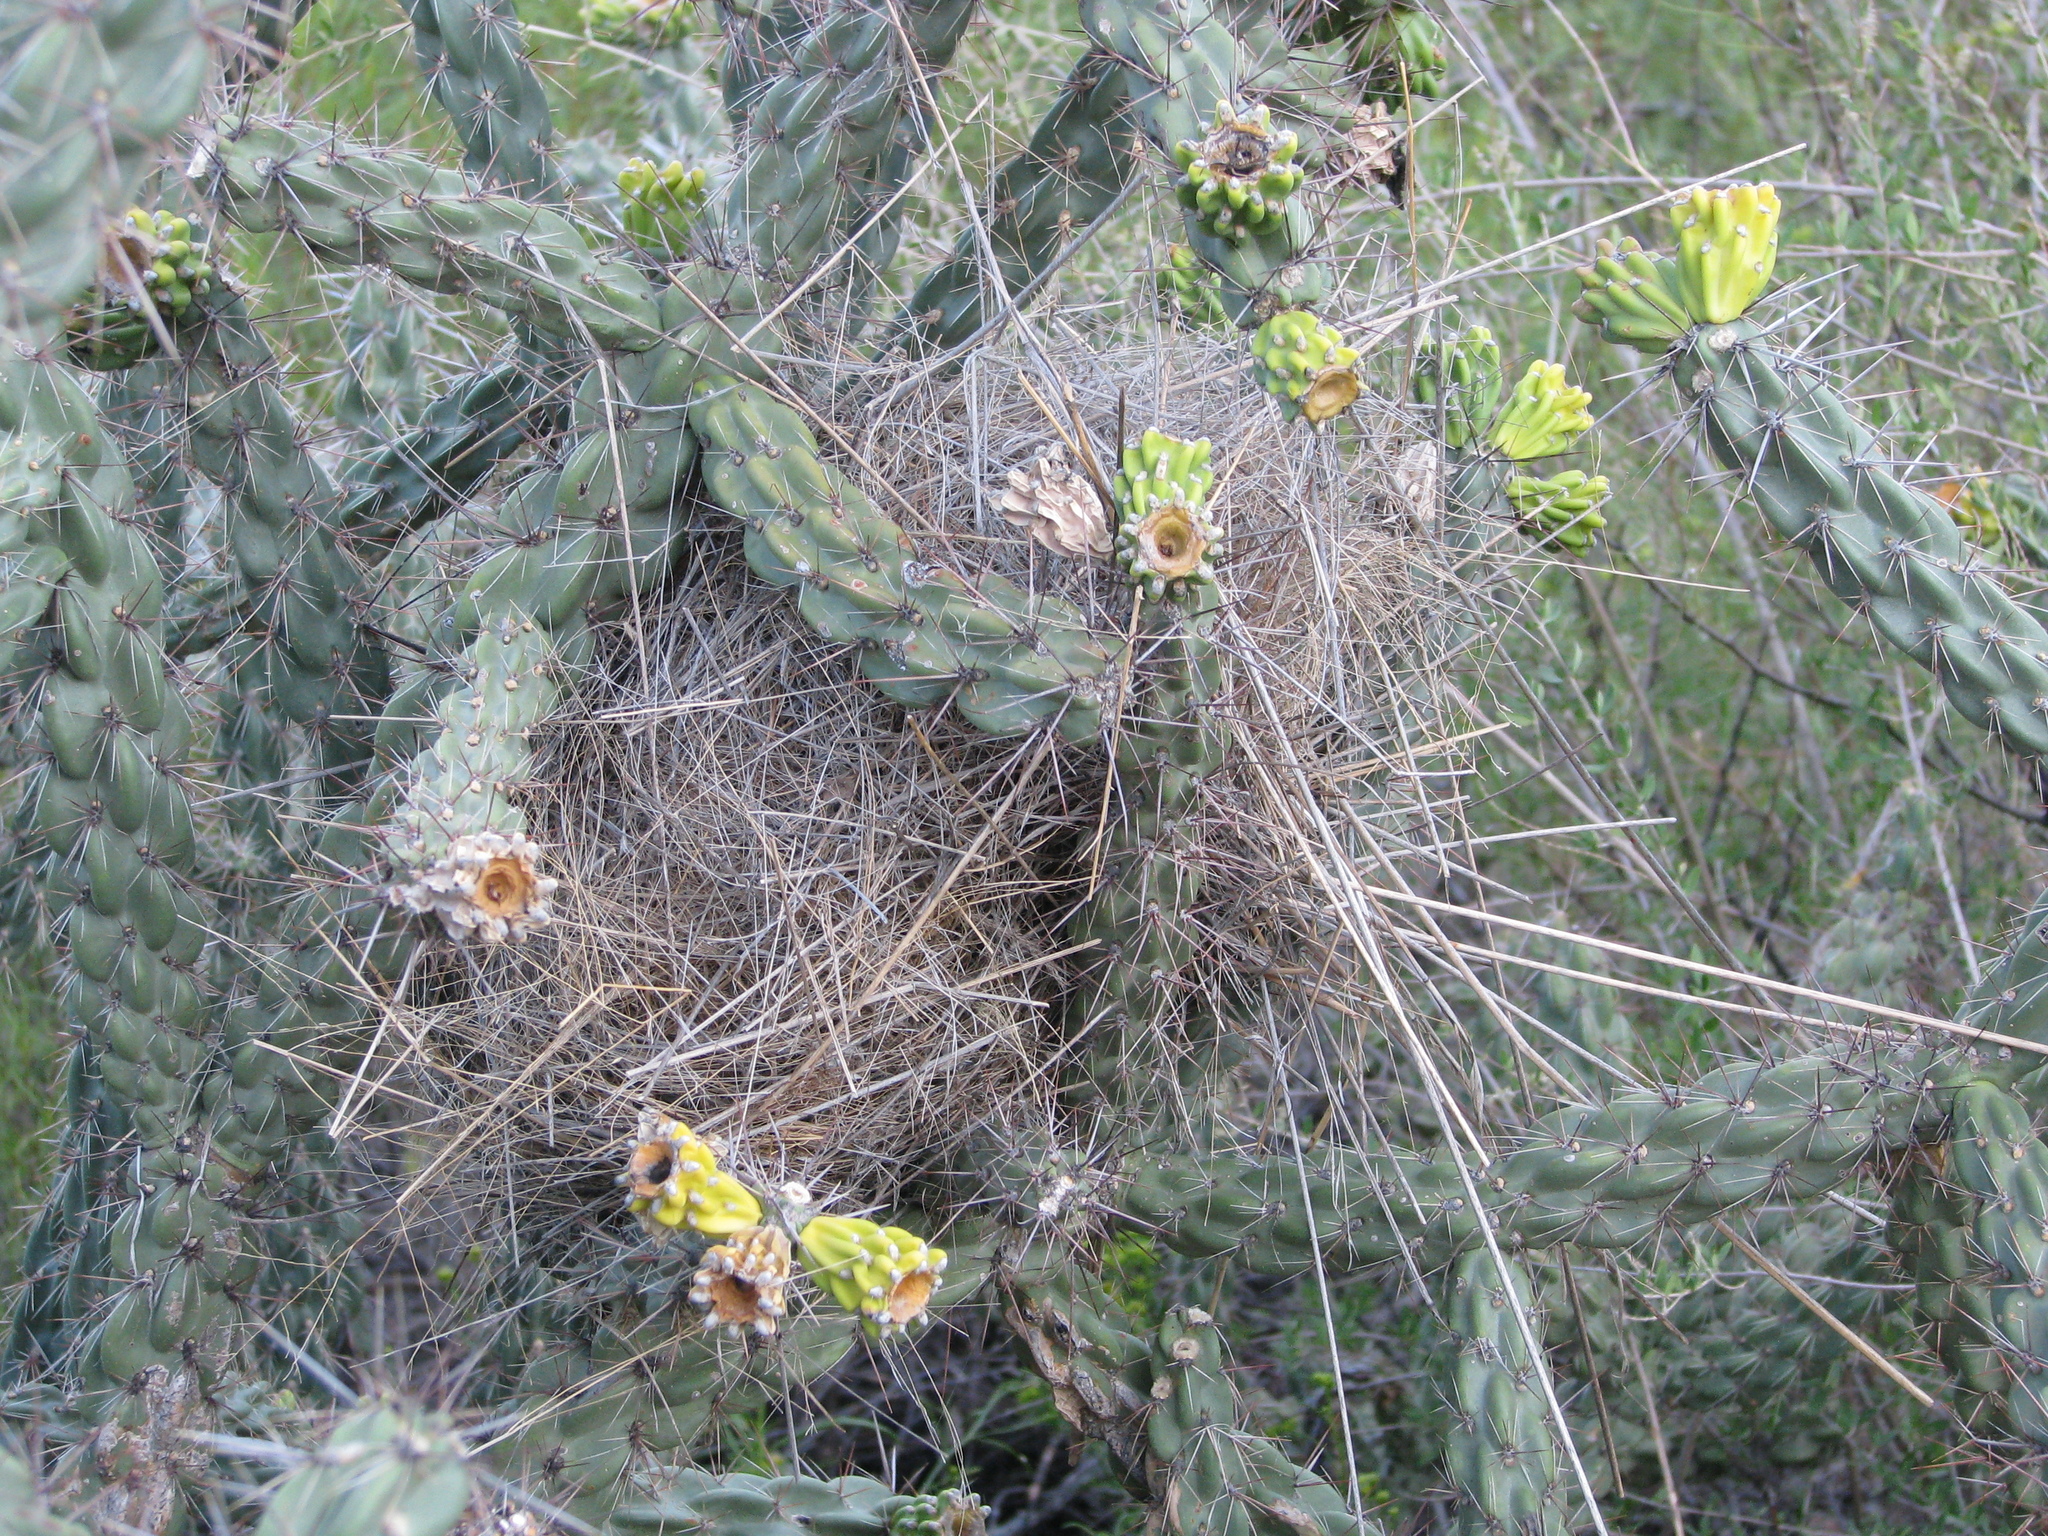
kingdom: Plantae
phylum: Tracheophyta
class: Magnoliopsida
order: Caryophyllales
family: Cactaceae
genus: Cylindropuntia
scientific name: Cylindropuntia imbricata
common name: Candelabrum cactus
